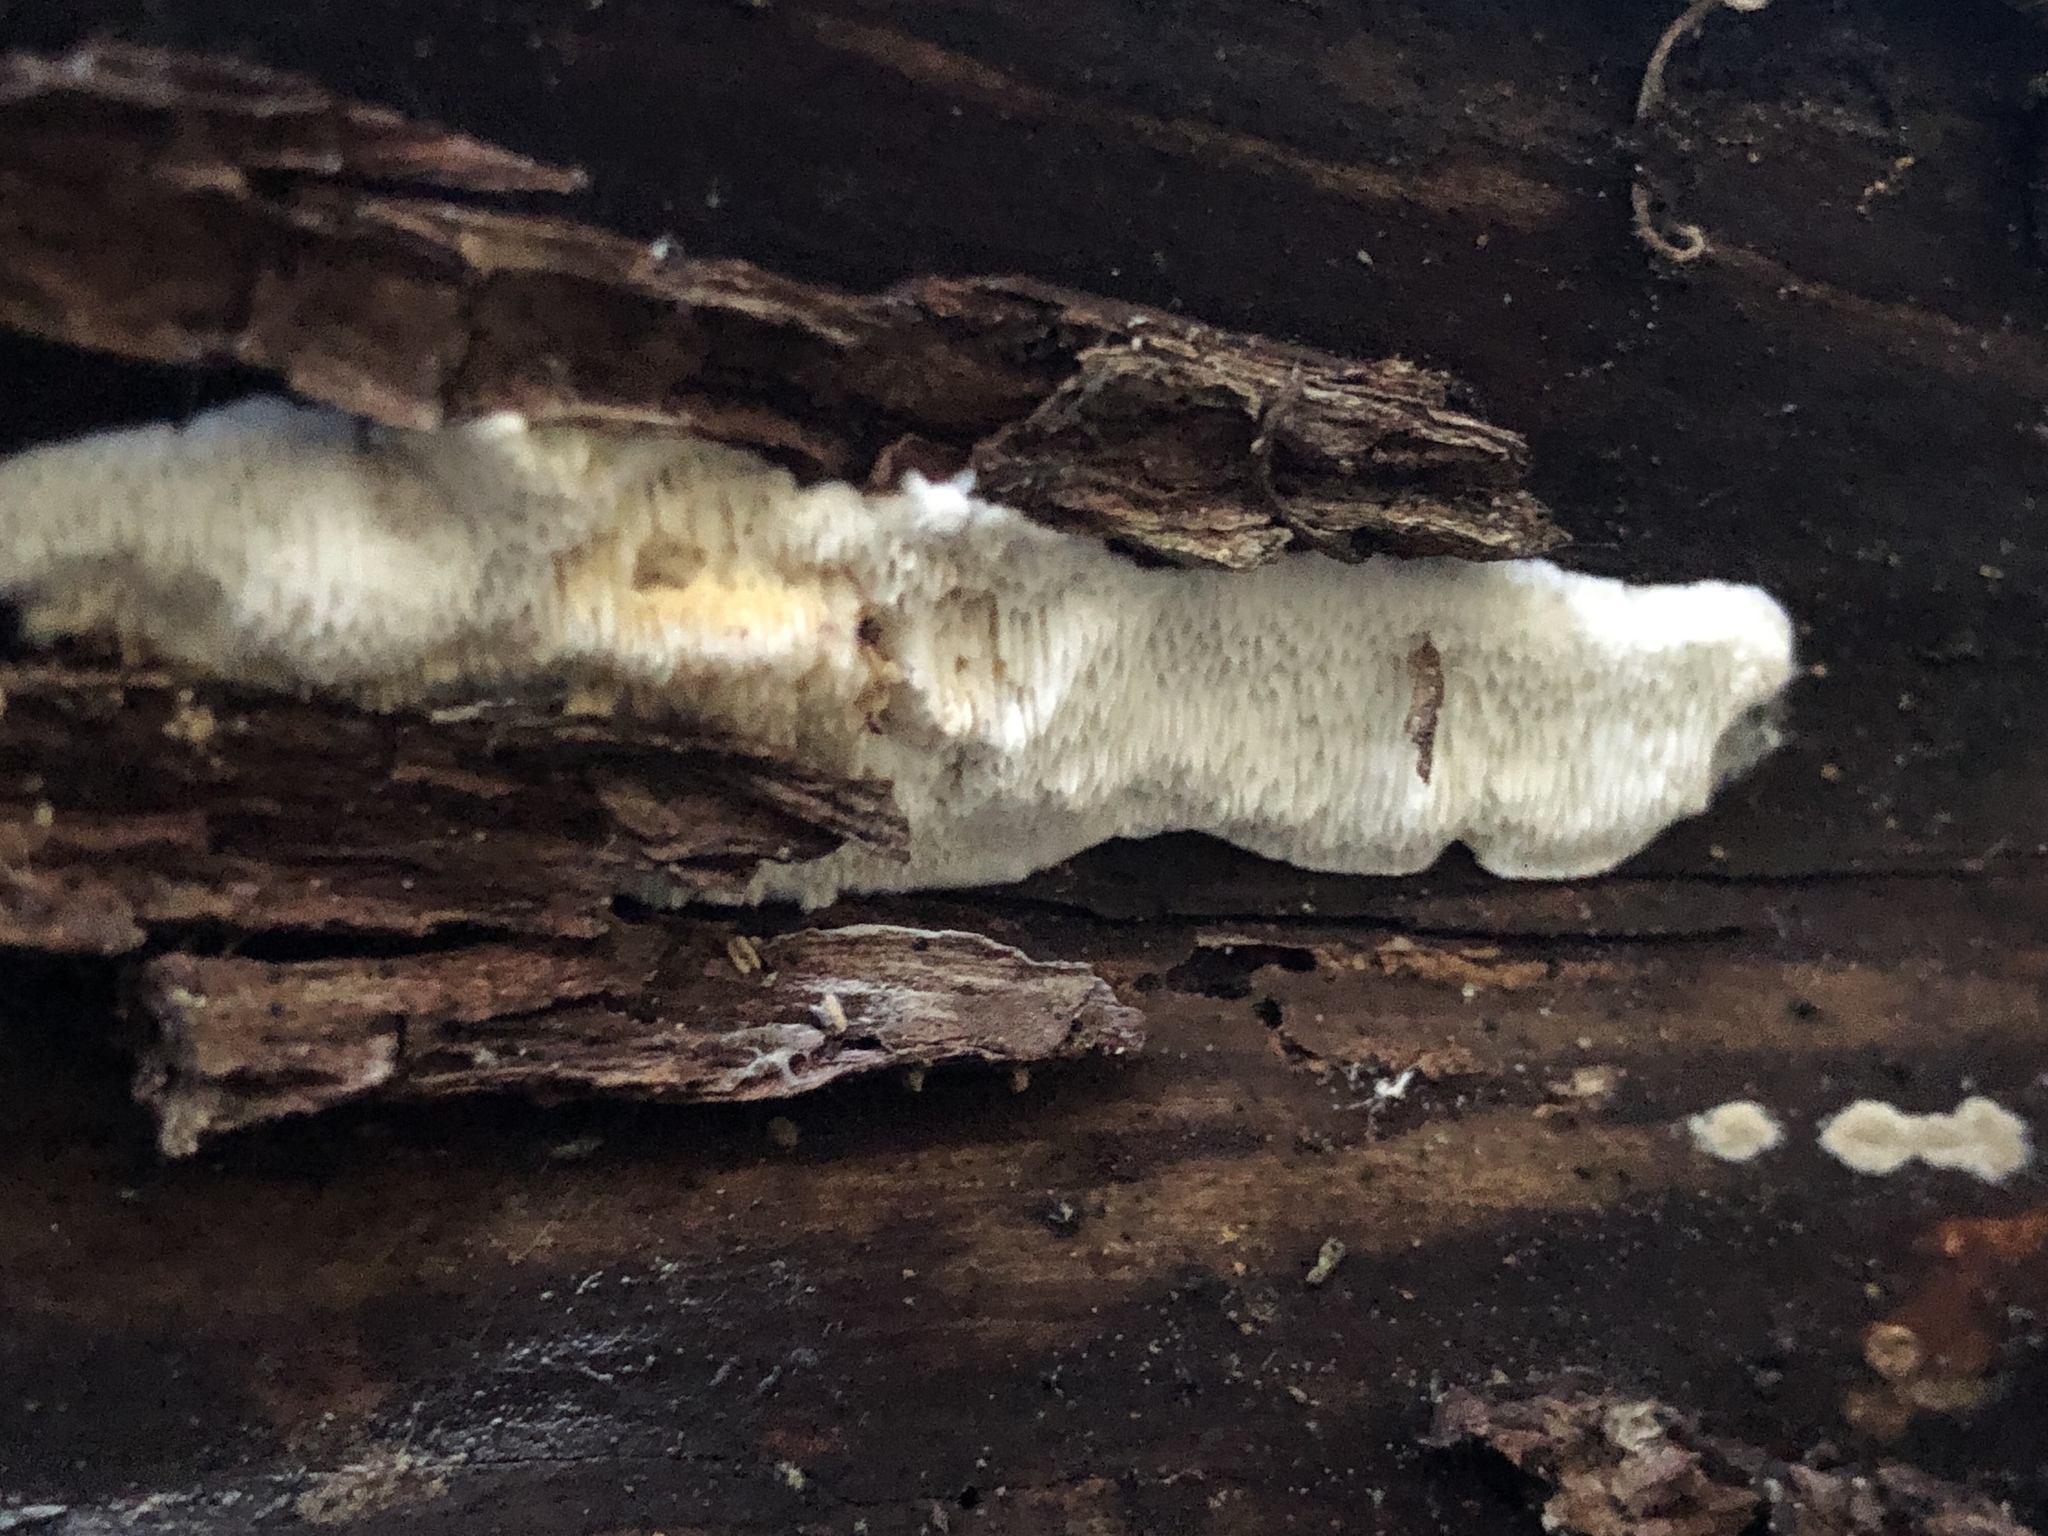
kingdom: Fungi
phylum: Basidiomycota
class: Agaricomycetes
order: Polyporales
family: Irpicaceae
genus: Irpex
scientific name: Irpex lacteus
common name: Milk-white toothed polypore
